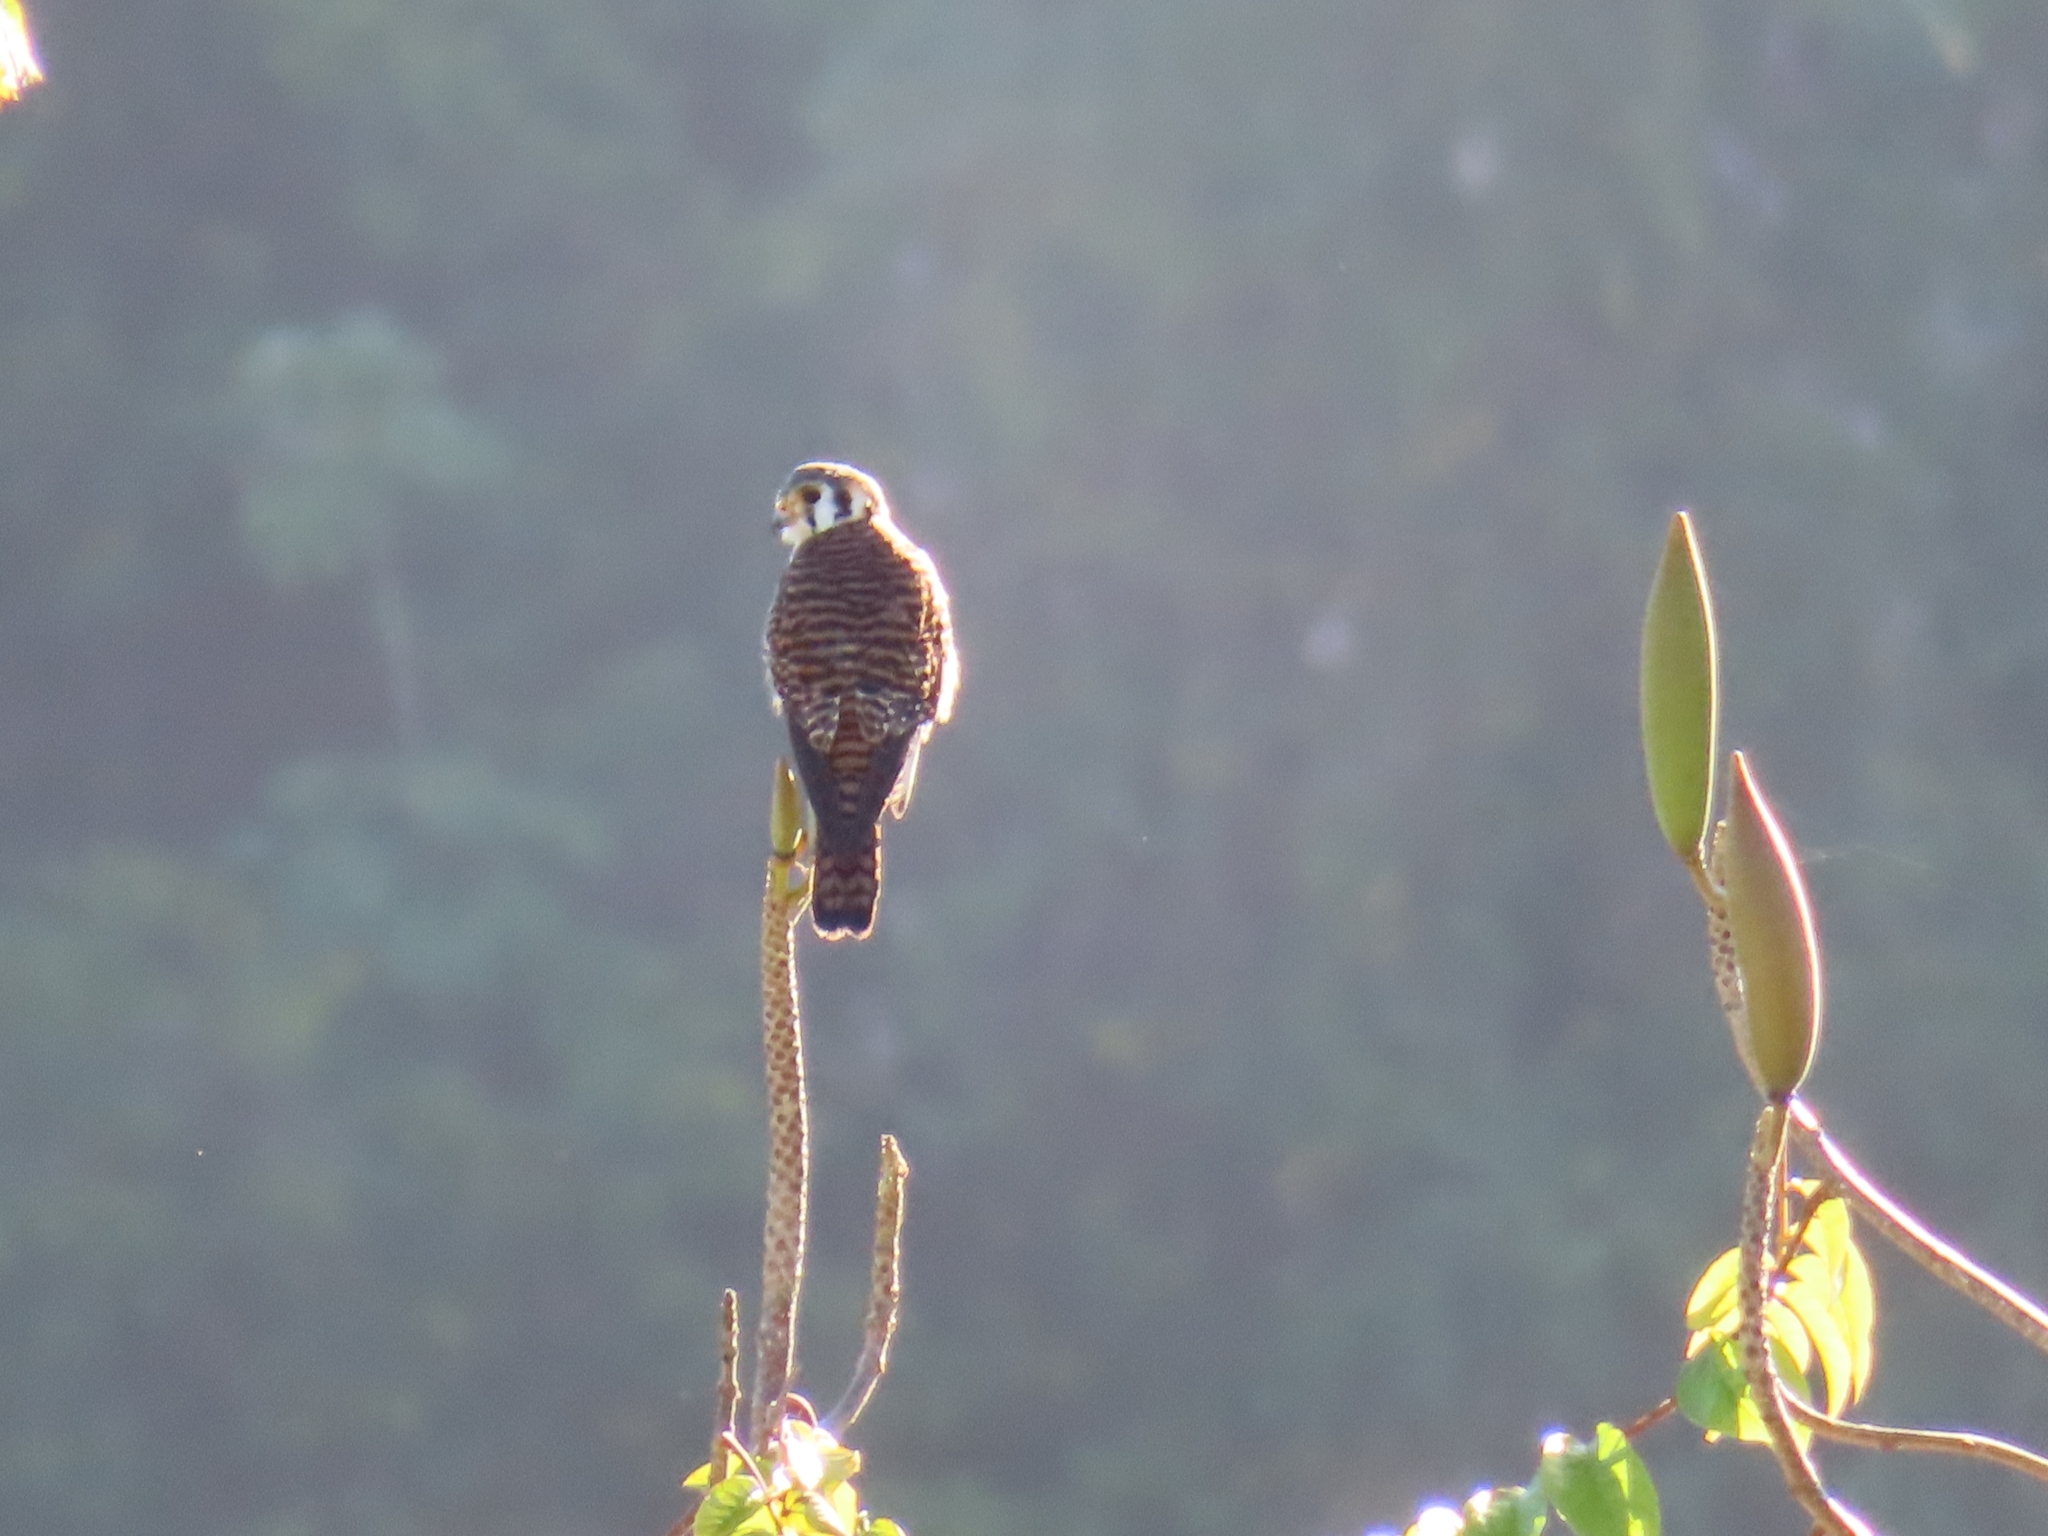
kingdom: Animalia
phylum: Chordata
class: Aves
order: Falconiformes
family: Falconidae
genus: Falco
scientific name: Falco sparverius
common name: American kestrel
